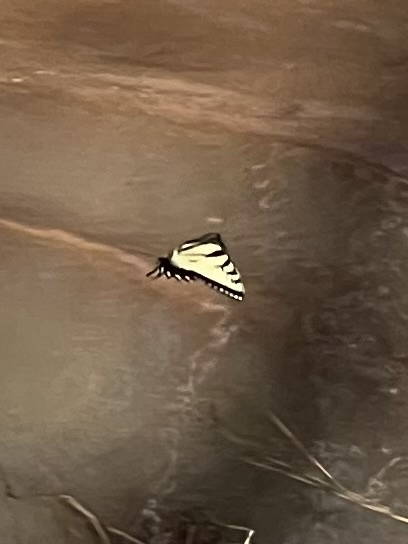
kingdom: Animalia
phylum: Arthropoda
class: Insecta
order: Lepidoptera
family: Papilionidae
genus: Papilio
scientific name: Papilio glaucus
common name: Tiger swallowtail
